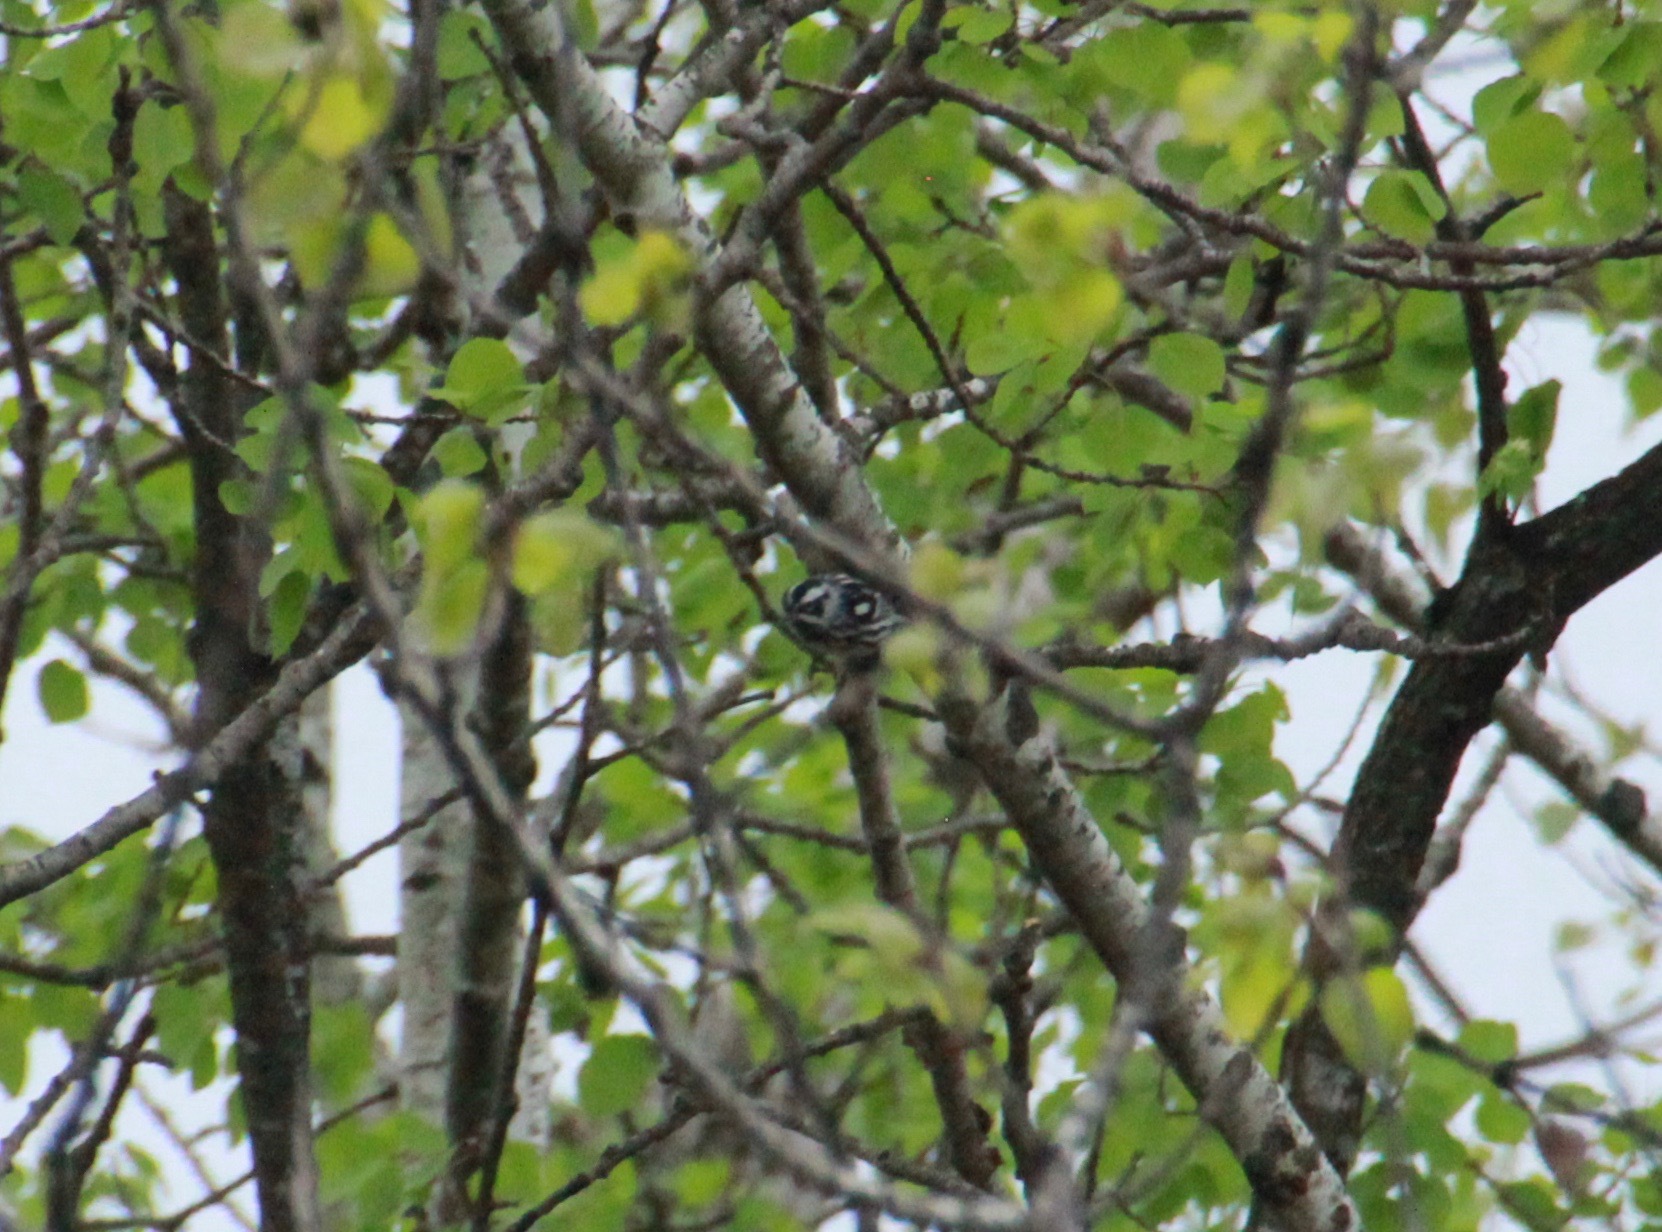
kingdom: Animalia
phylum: Chordata
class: Aves
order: Passeriformes
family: Parulidae
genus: Mniotilta
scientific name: Mniotilta varia
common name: Black-and-white warbler
